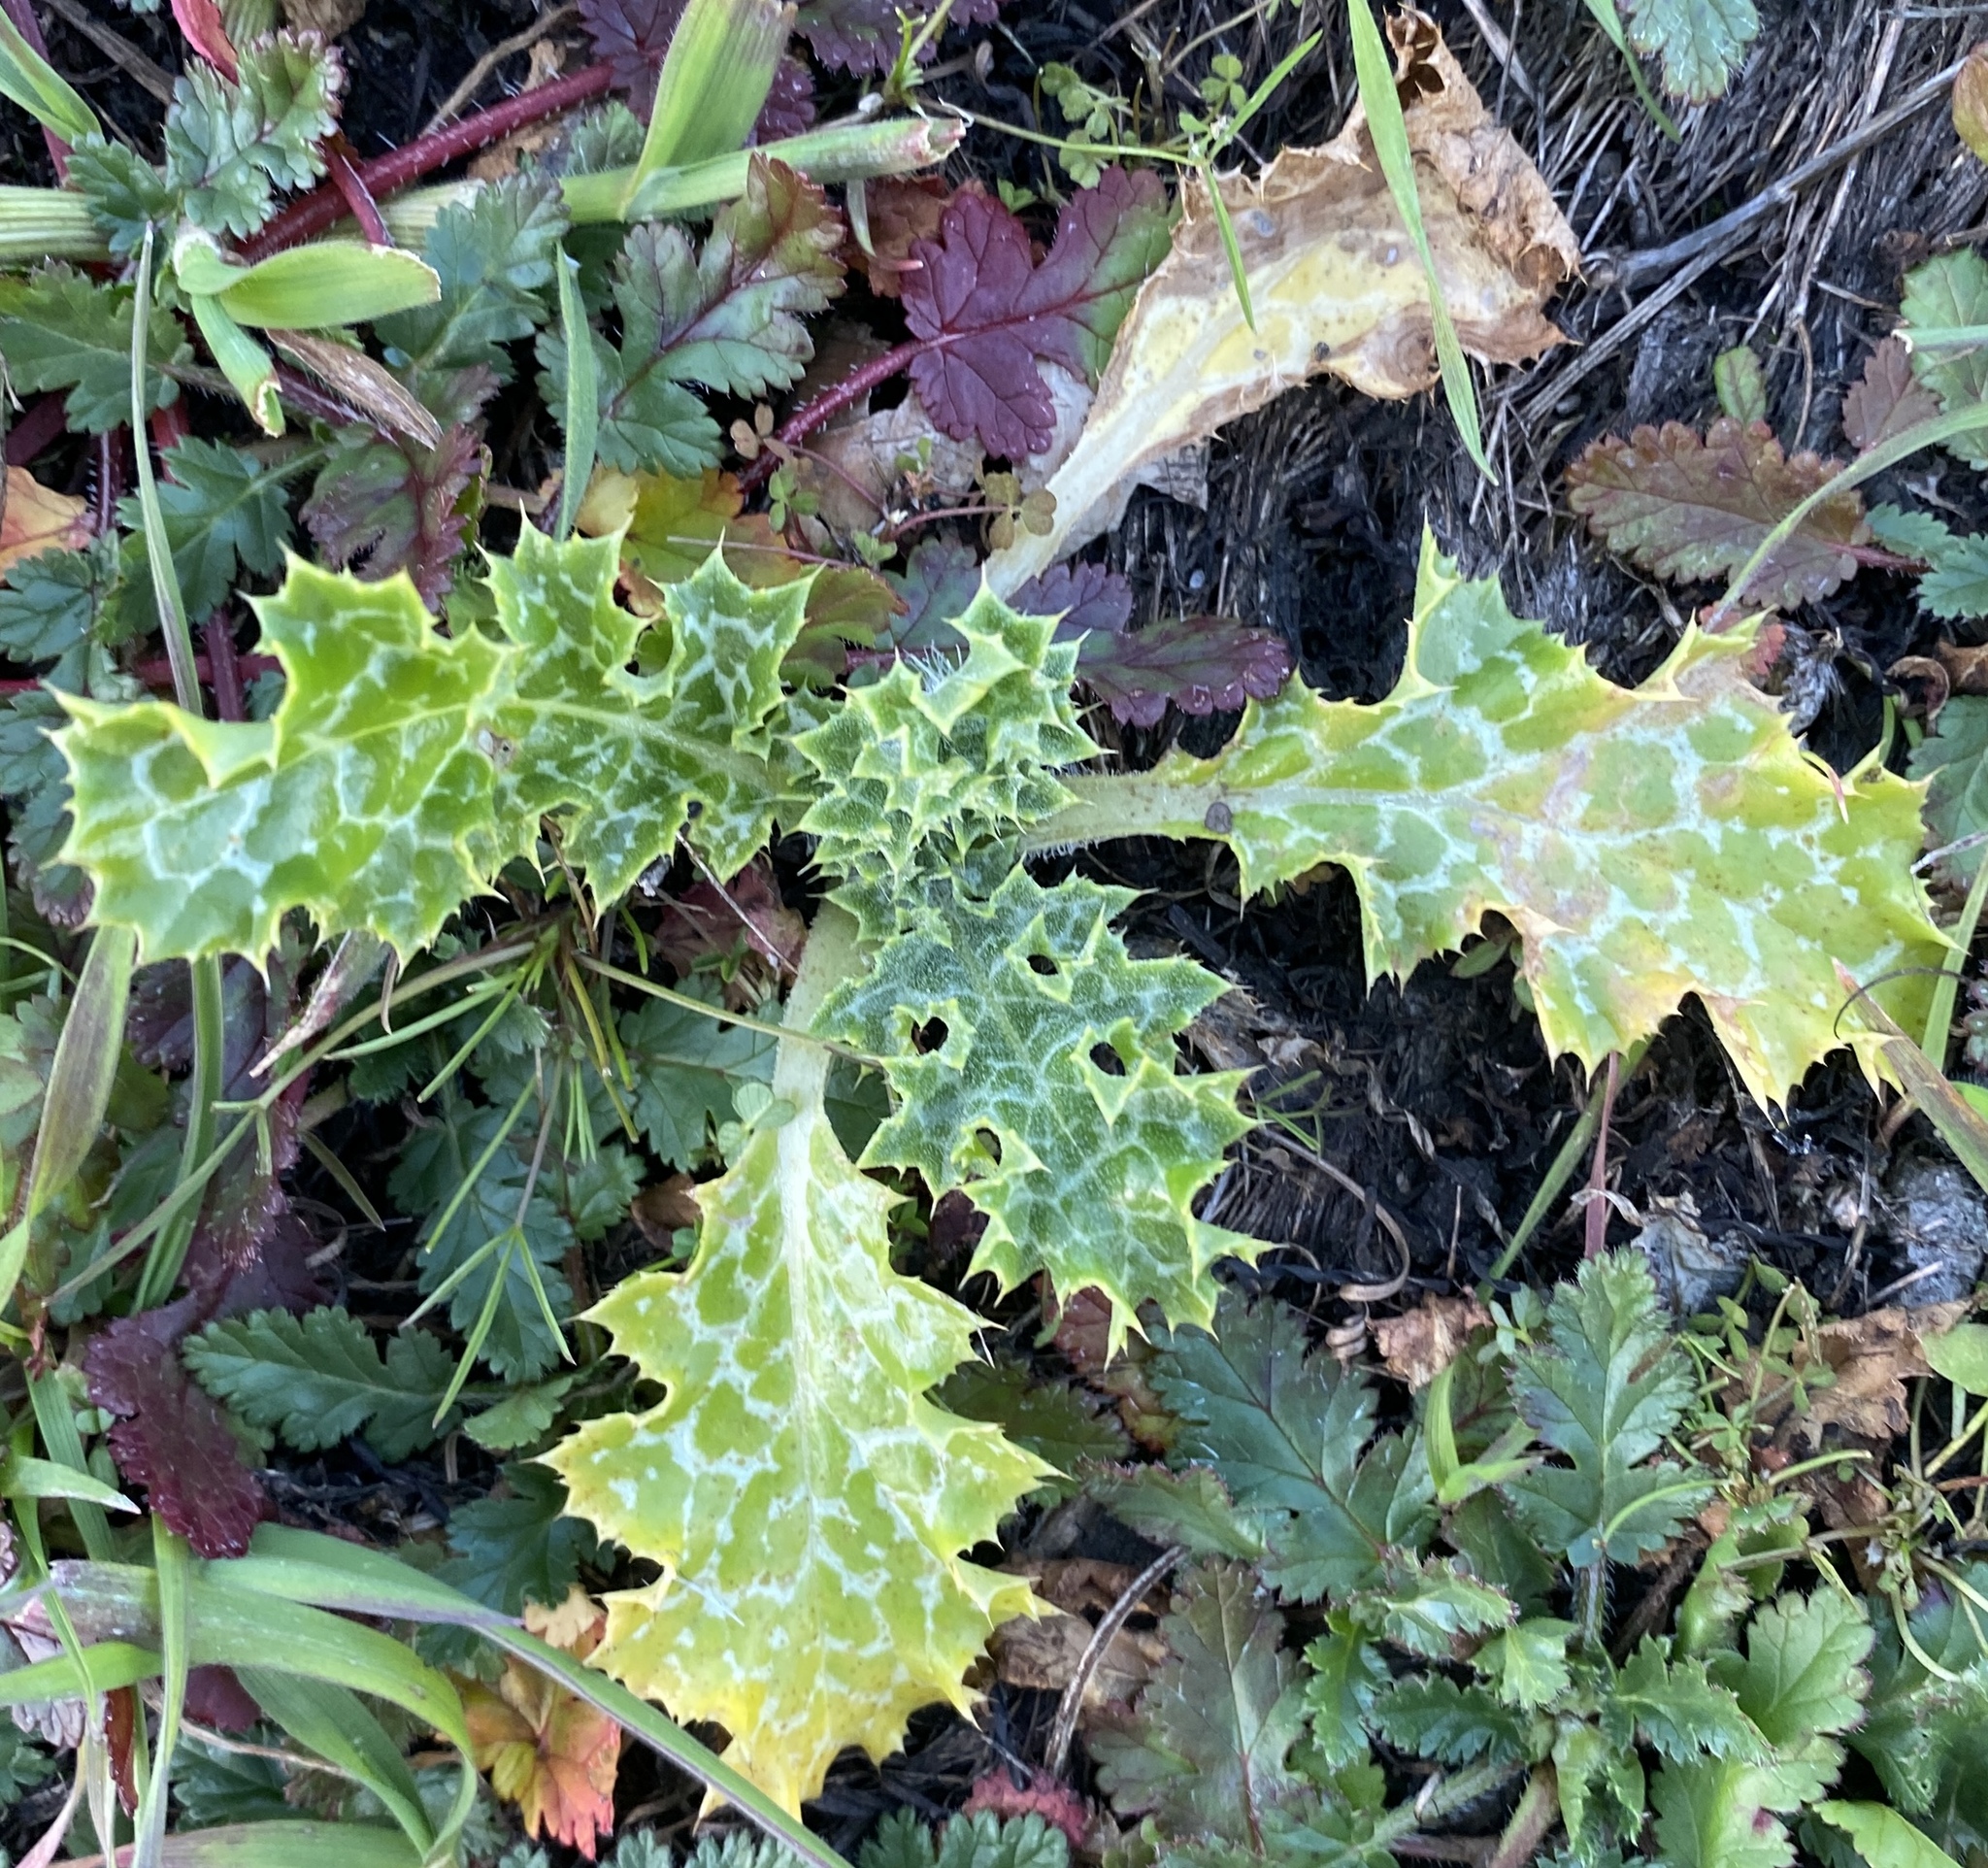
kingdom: Plantae
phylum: Tracheophyta
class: Magnoliopsida
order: Asterales
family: Asteraceae
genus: Silybum
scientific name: Silybum marianum
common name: Milk thistle
